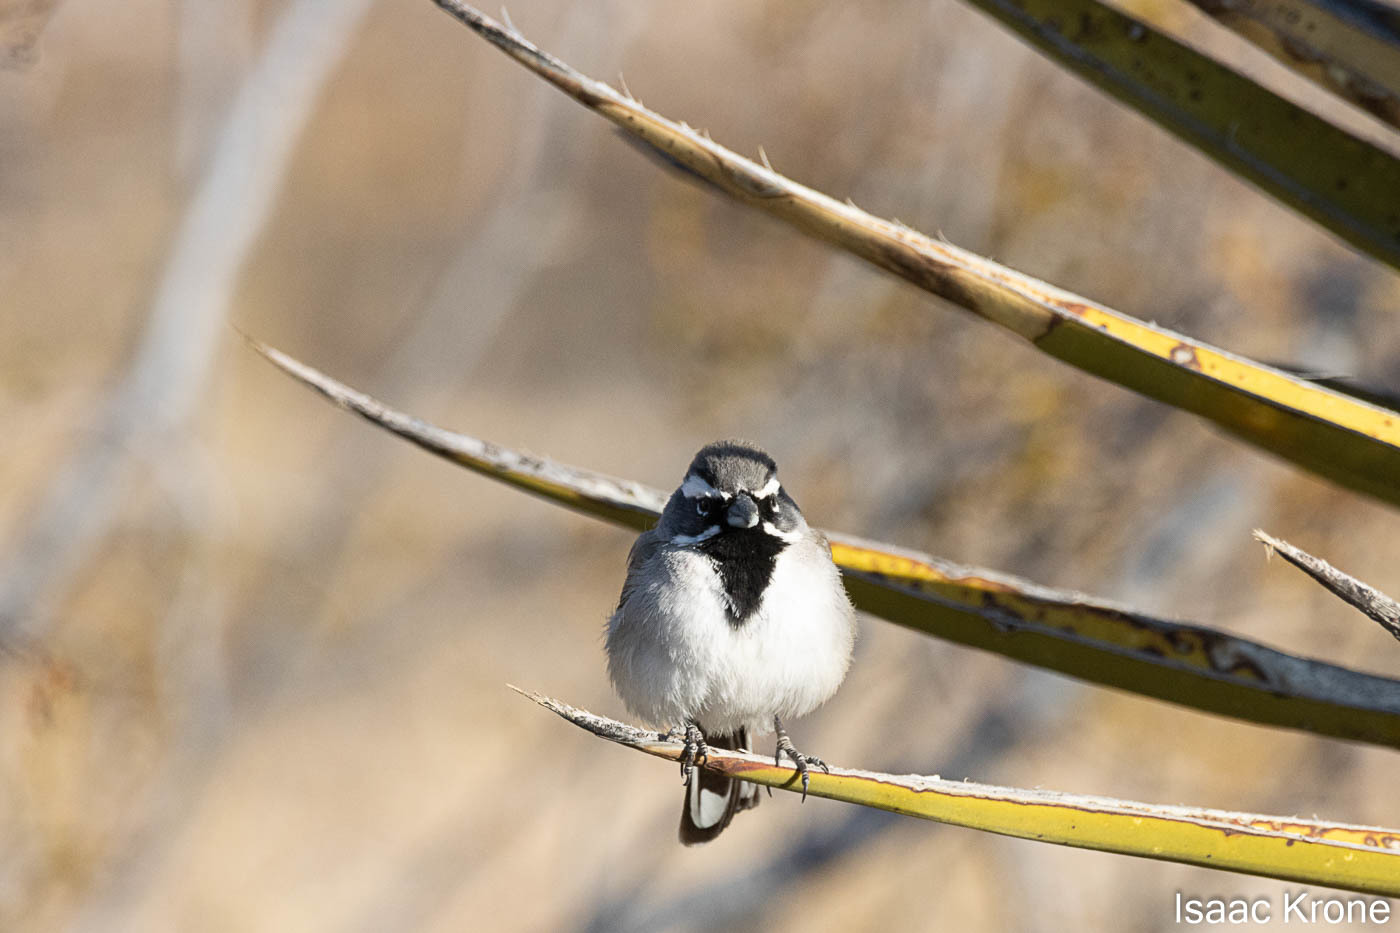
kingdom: Animalia
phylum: Chordata
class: Aves
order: Passeriformes
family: Passerellidae
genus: Amphispiza
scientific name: Amphispiza bilineata
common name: Black-throated sparrow
